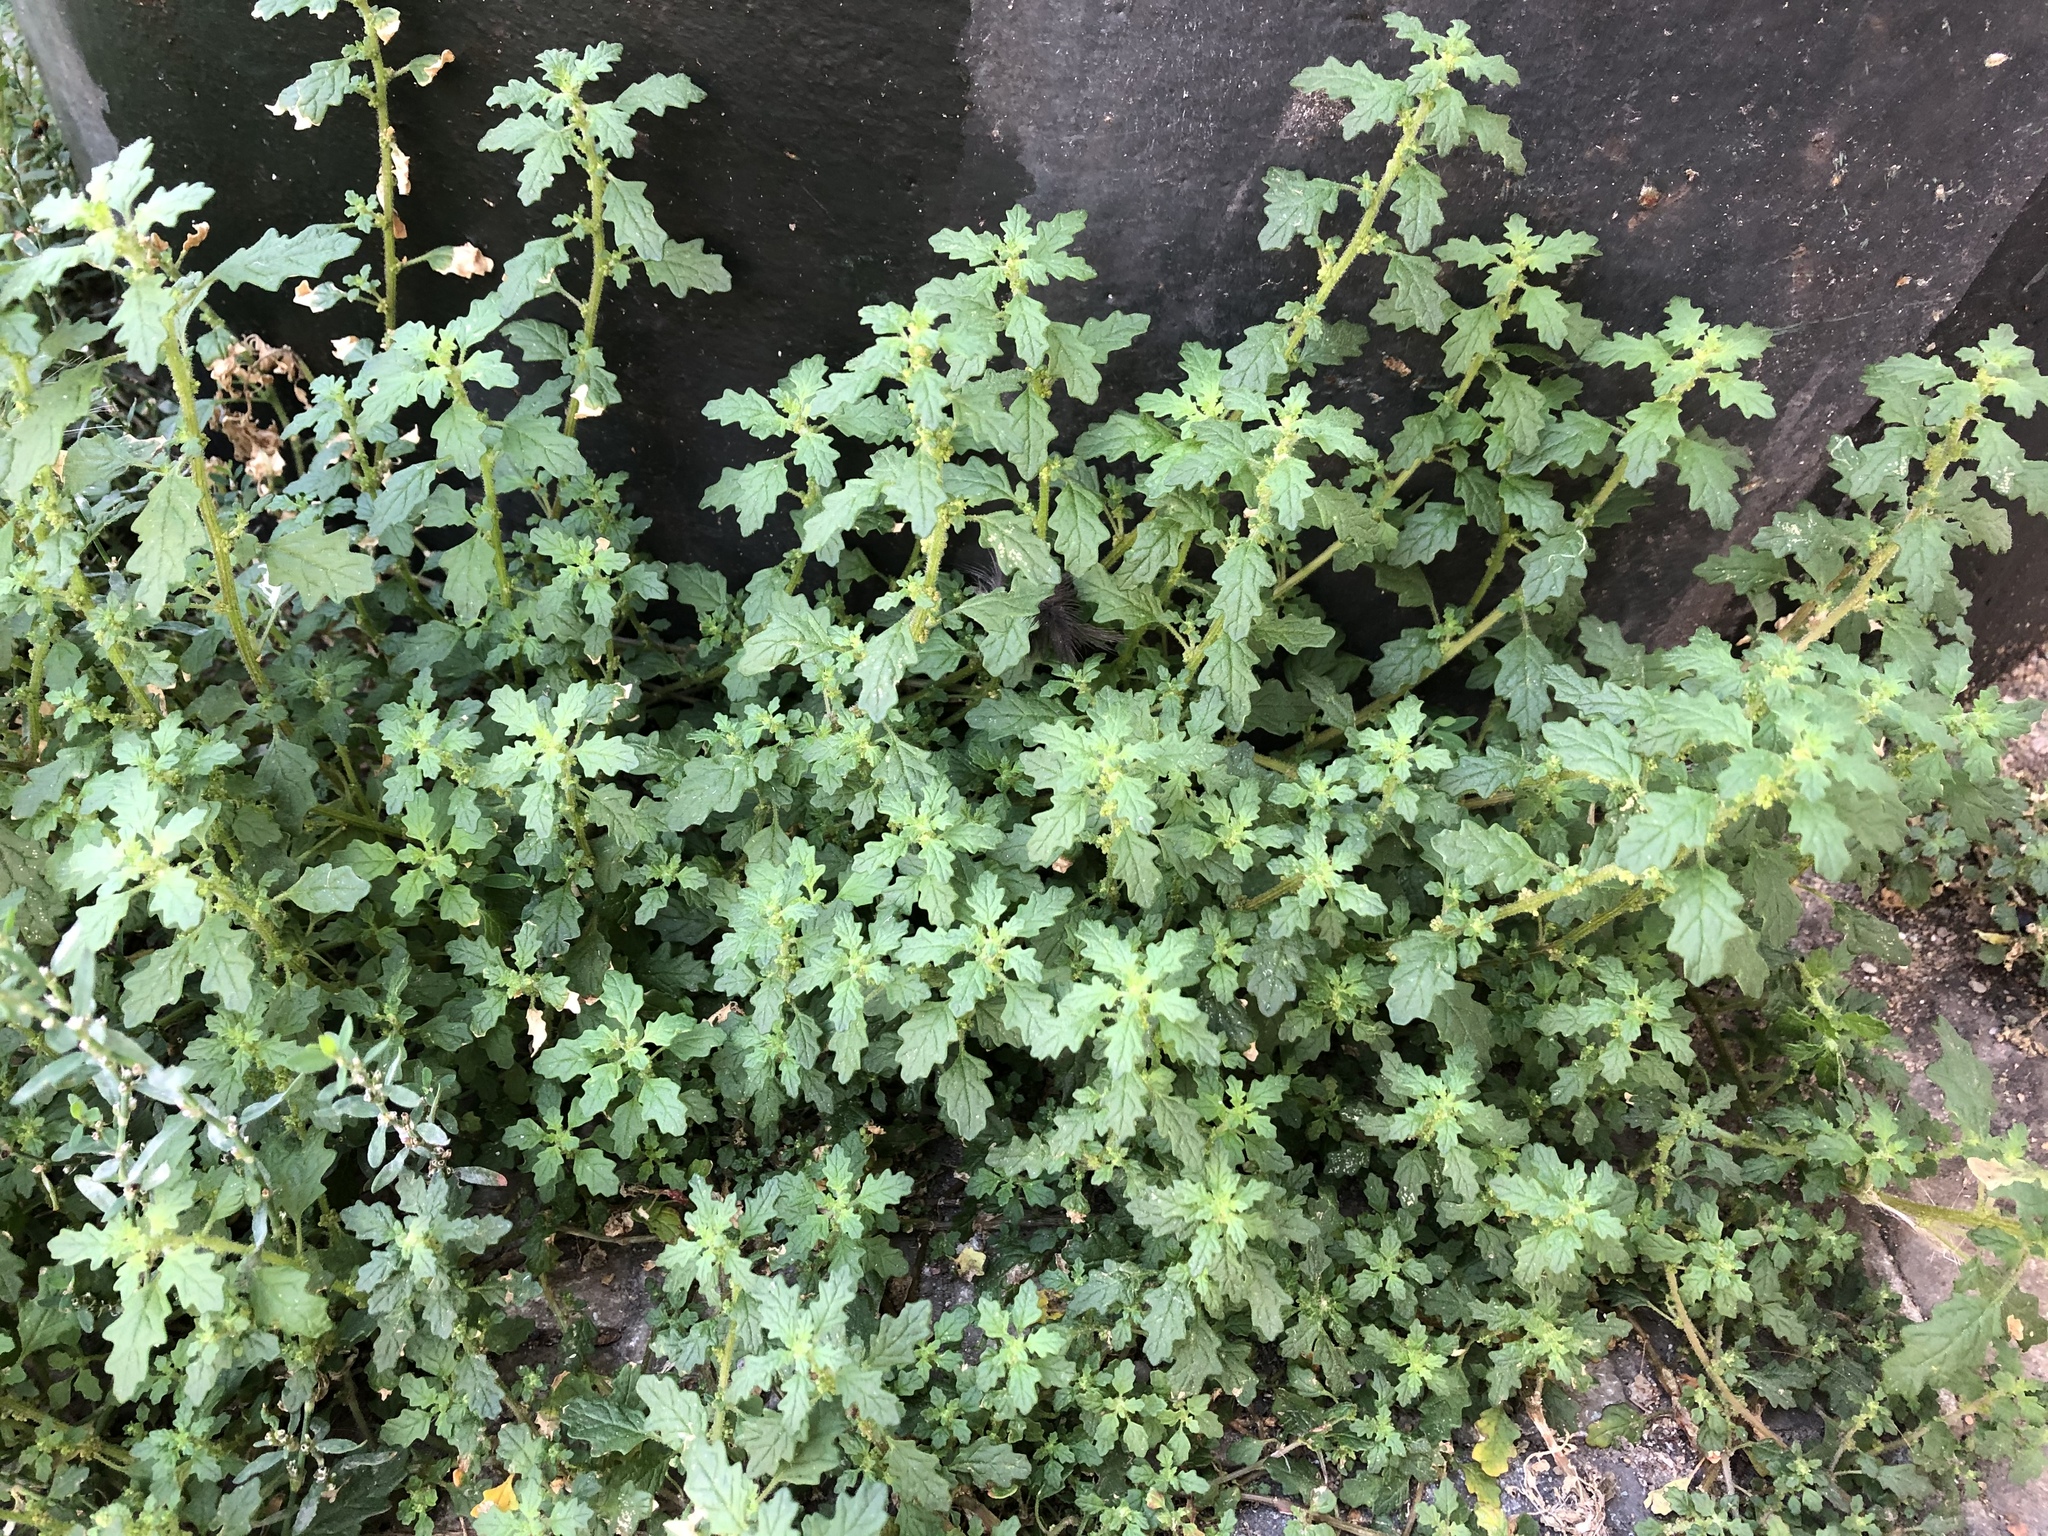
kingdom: Plantae
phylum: Tracheophyta
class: Magnoliopsida
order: Caryophyllales
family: Amaranthaceae
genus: Dysphania
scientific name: Dysphania pumilio
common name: Clammy goosefoot
